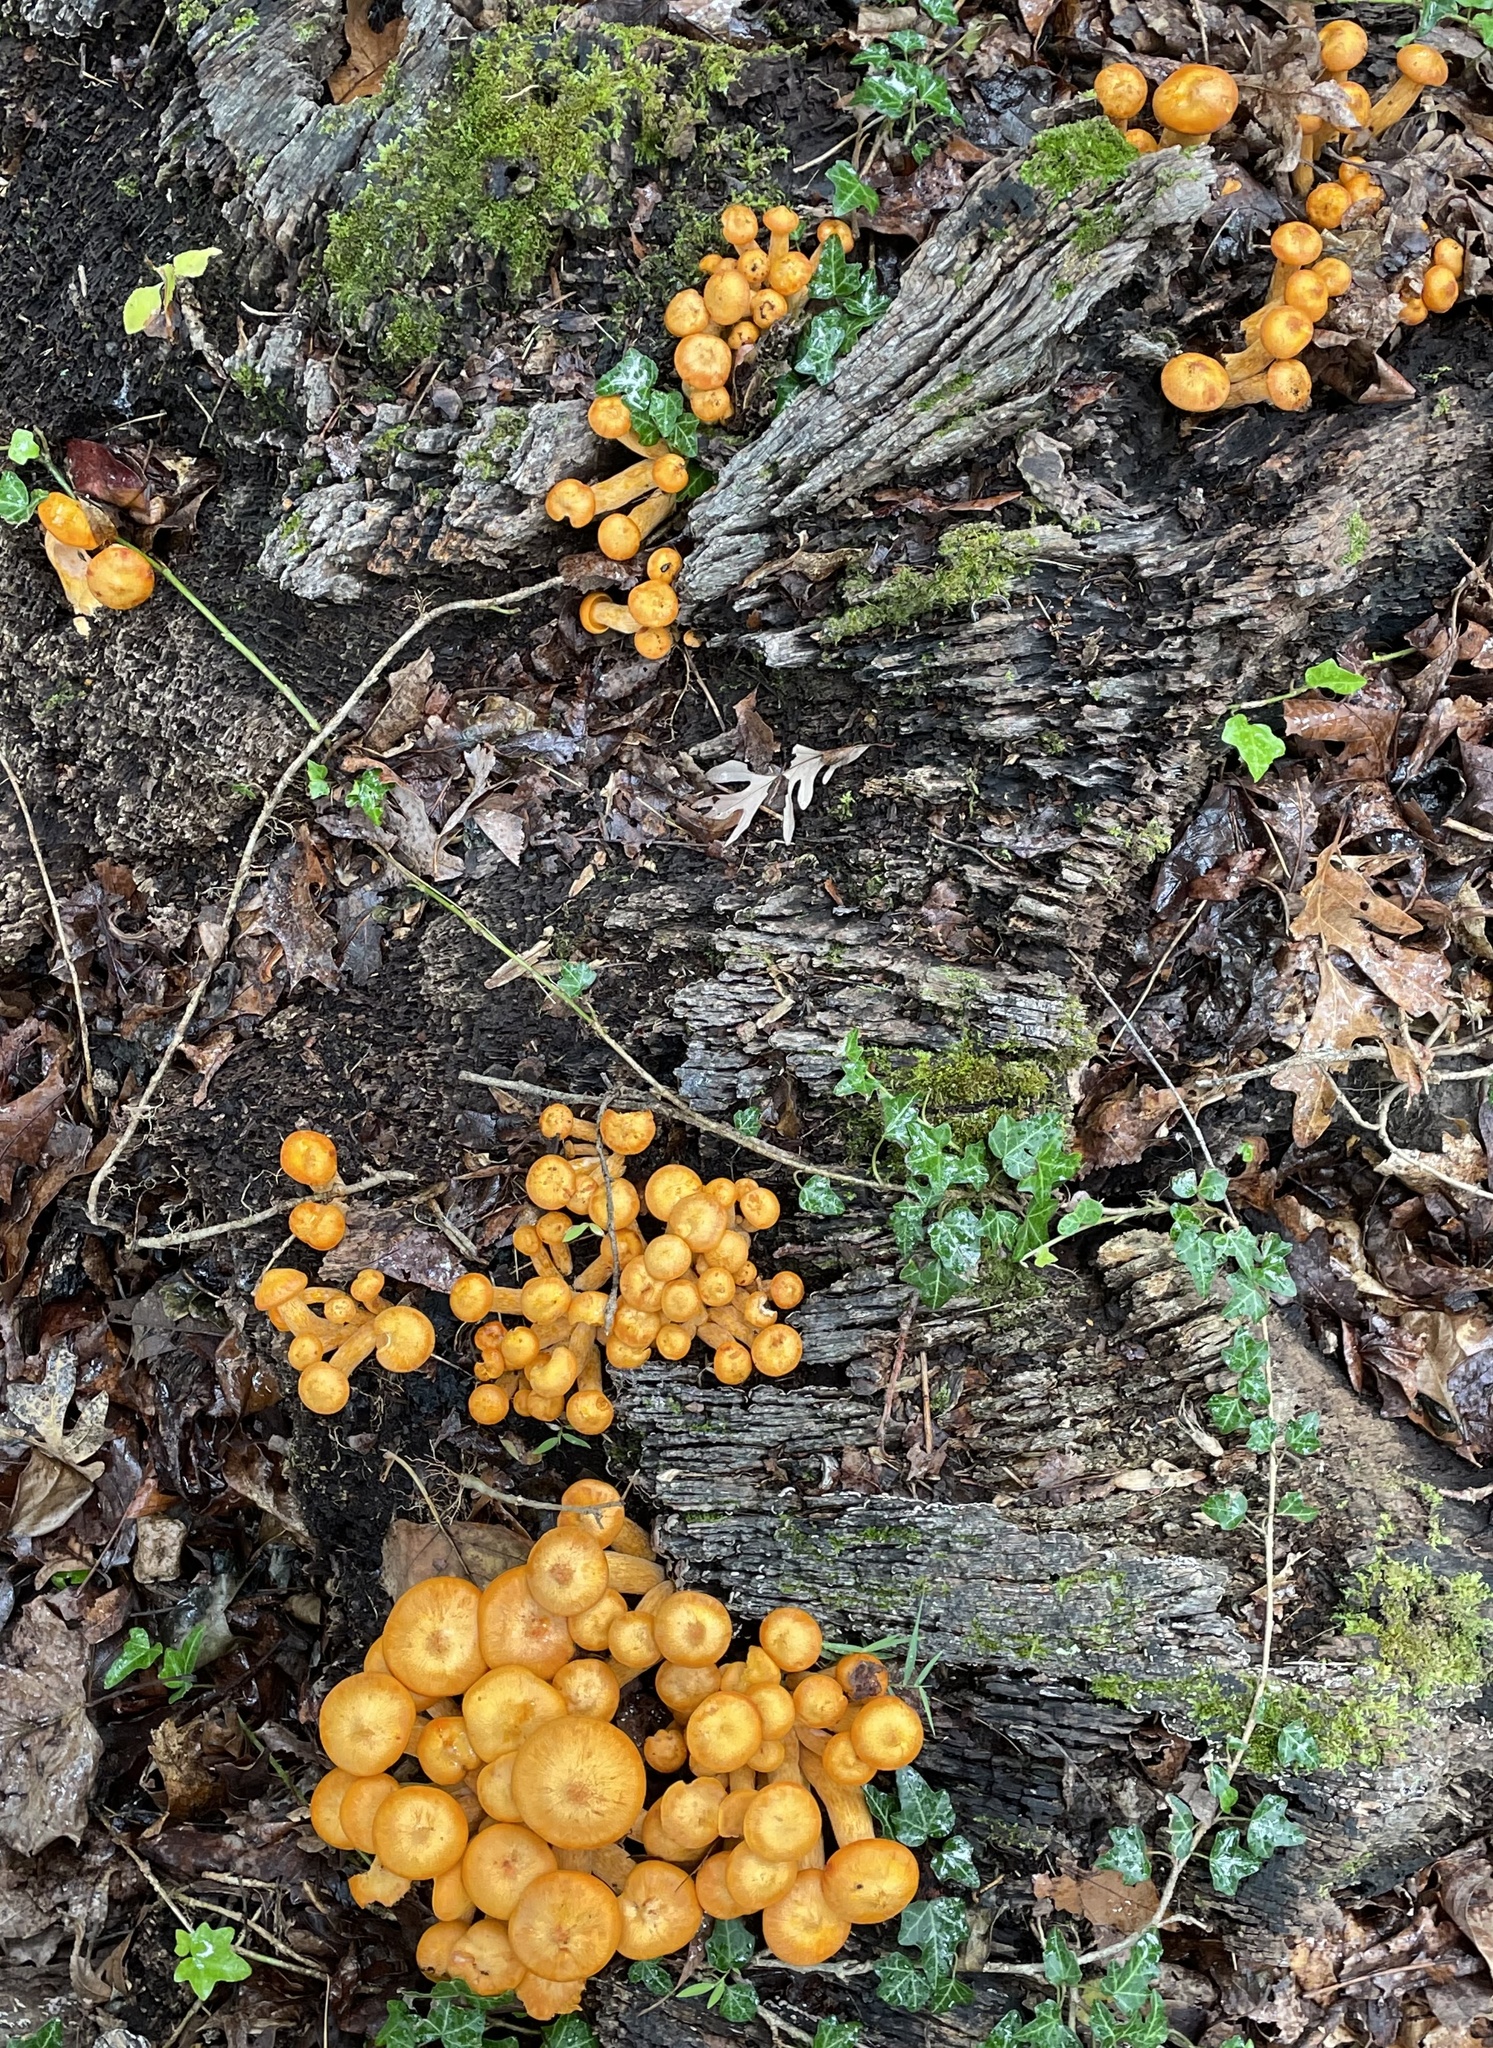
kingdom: Fungi
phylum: Basidiomycota
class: Agaricomycetes
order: Agaricales
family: Omphalotaceae
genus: Omphalotus
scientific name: Omphalotus illudens
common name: Jack o lantern
